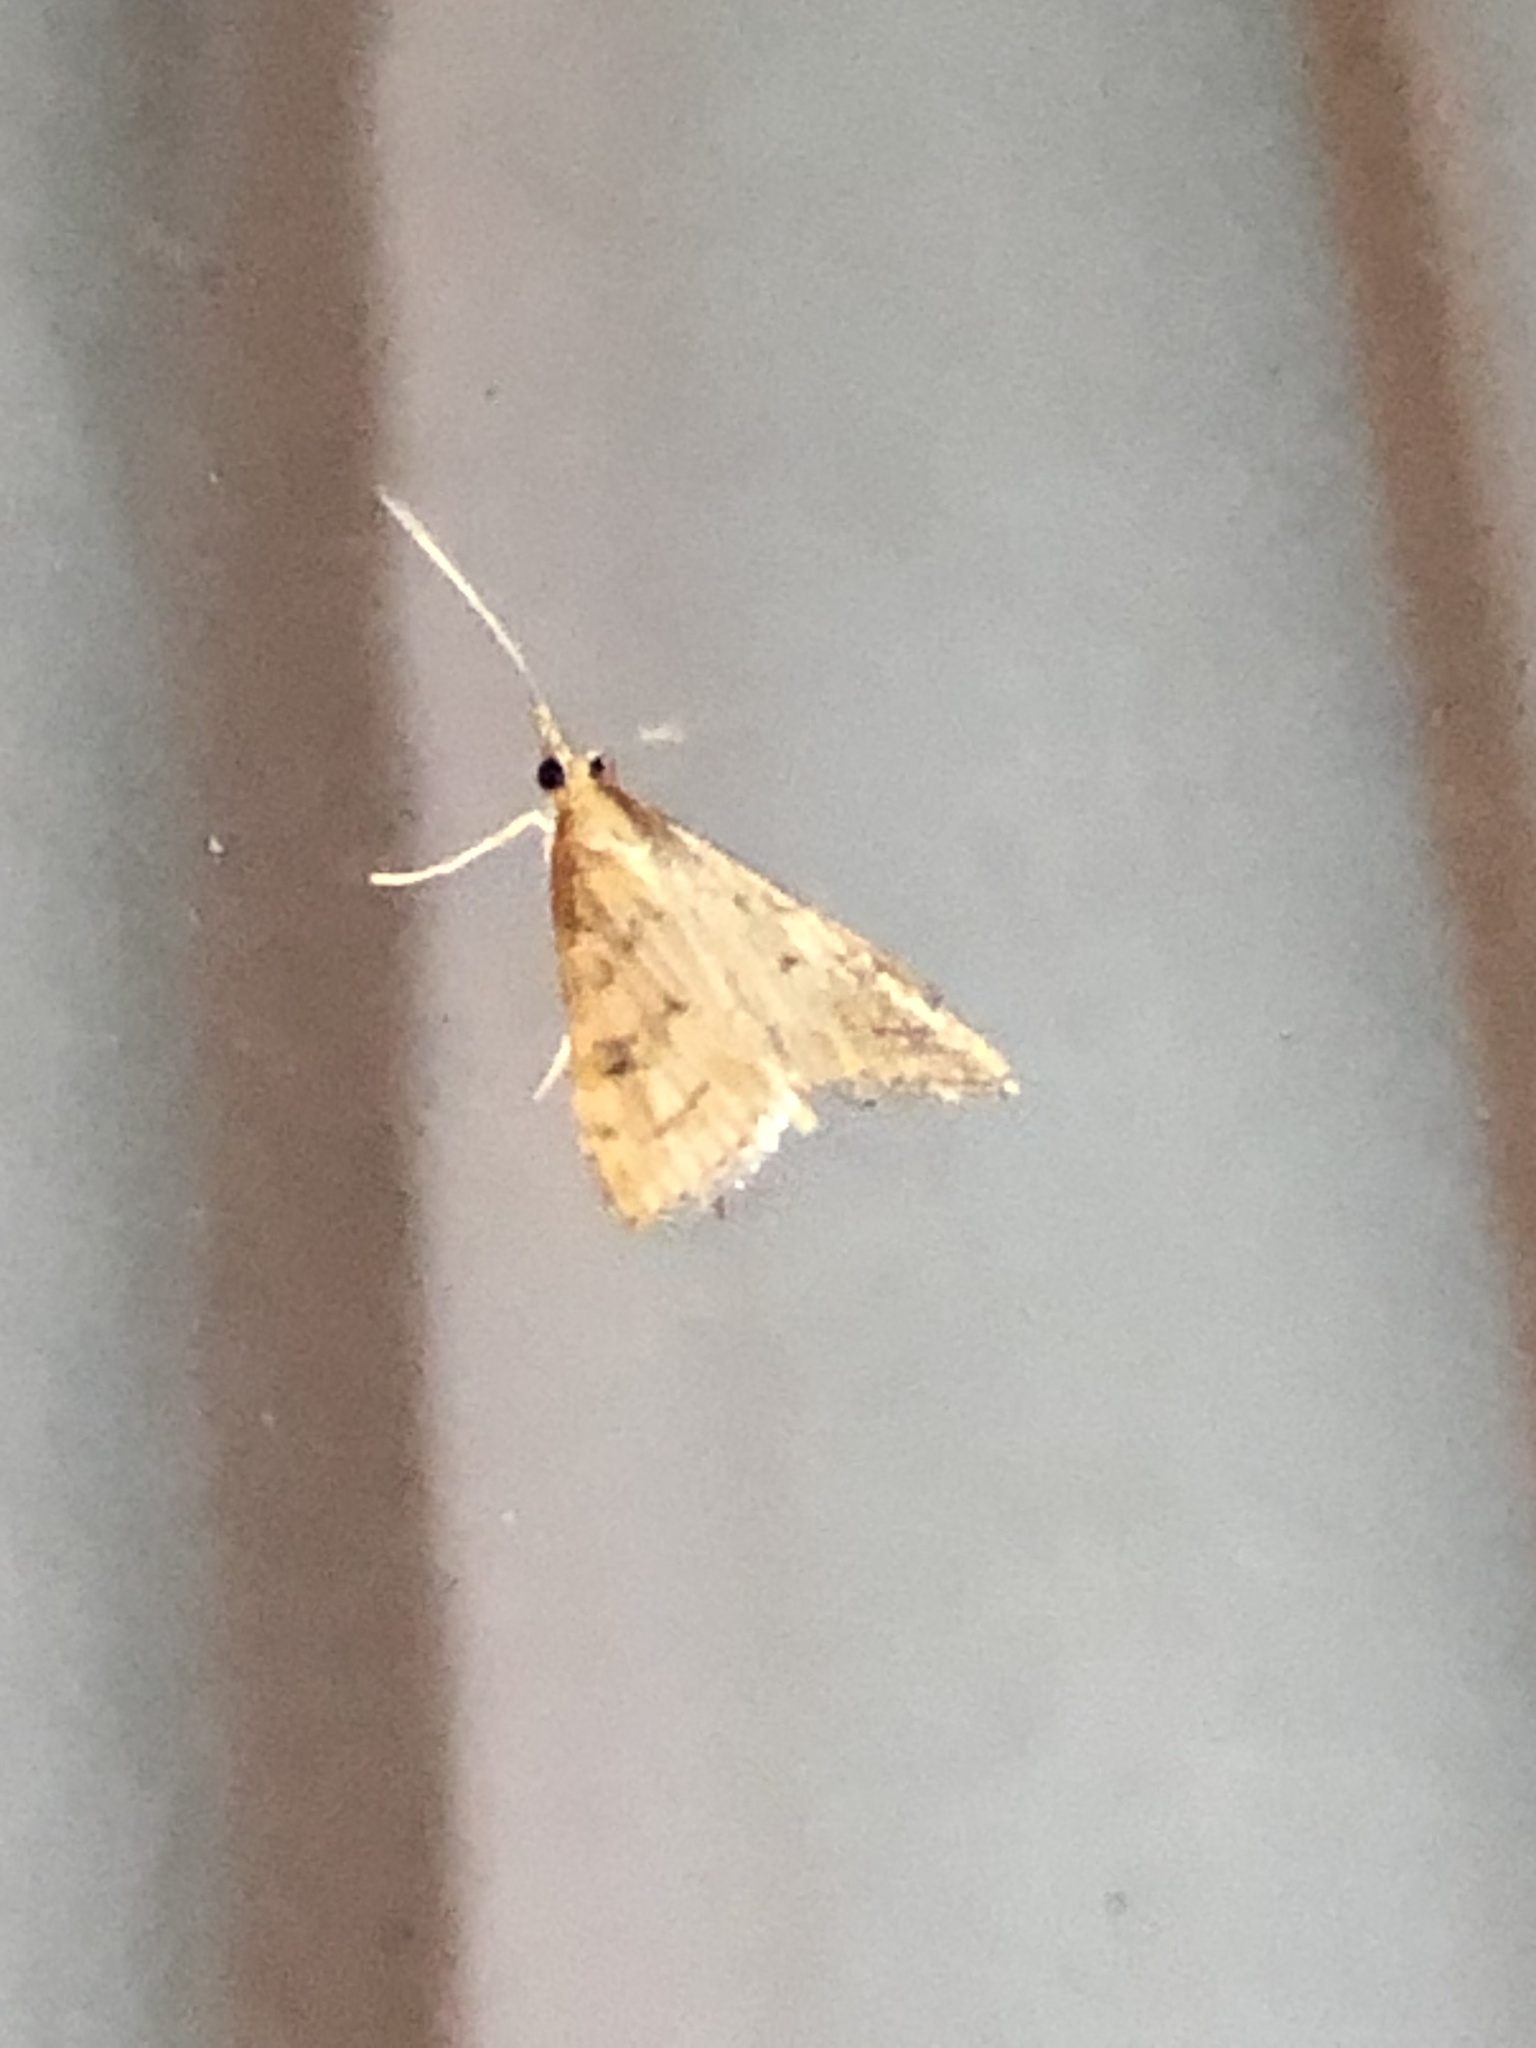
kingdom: Animalia
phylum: Arthropoda
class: Insecta
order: Lepidoptera
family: Crambidae
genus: Udea
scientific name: Udea rubigalis
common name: Celery leaftier moth
